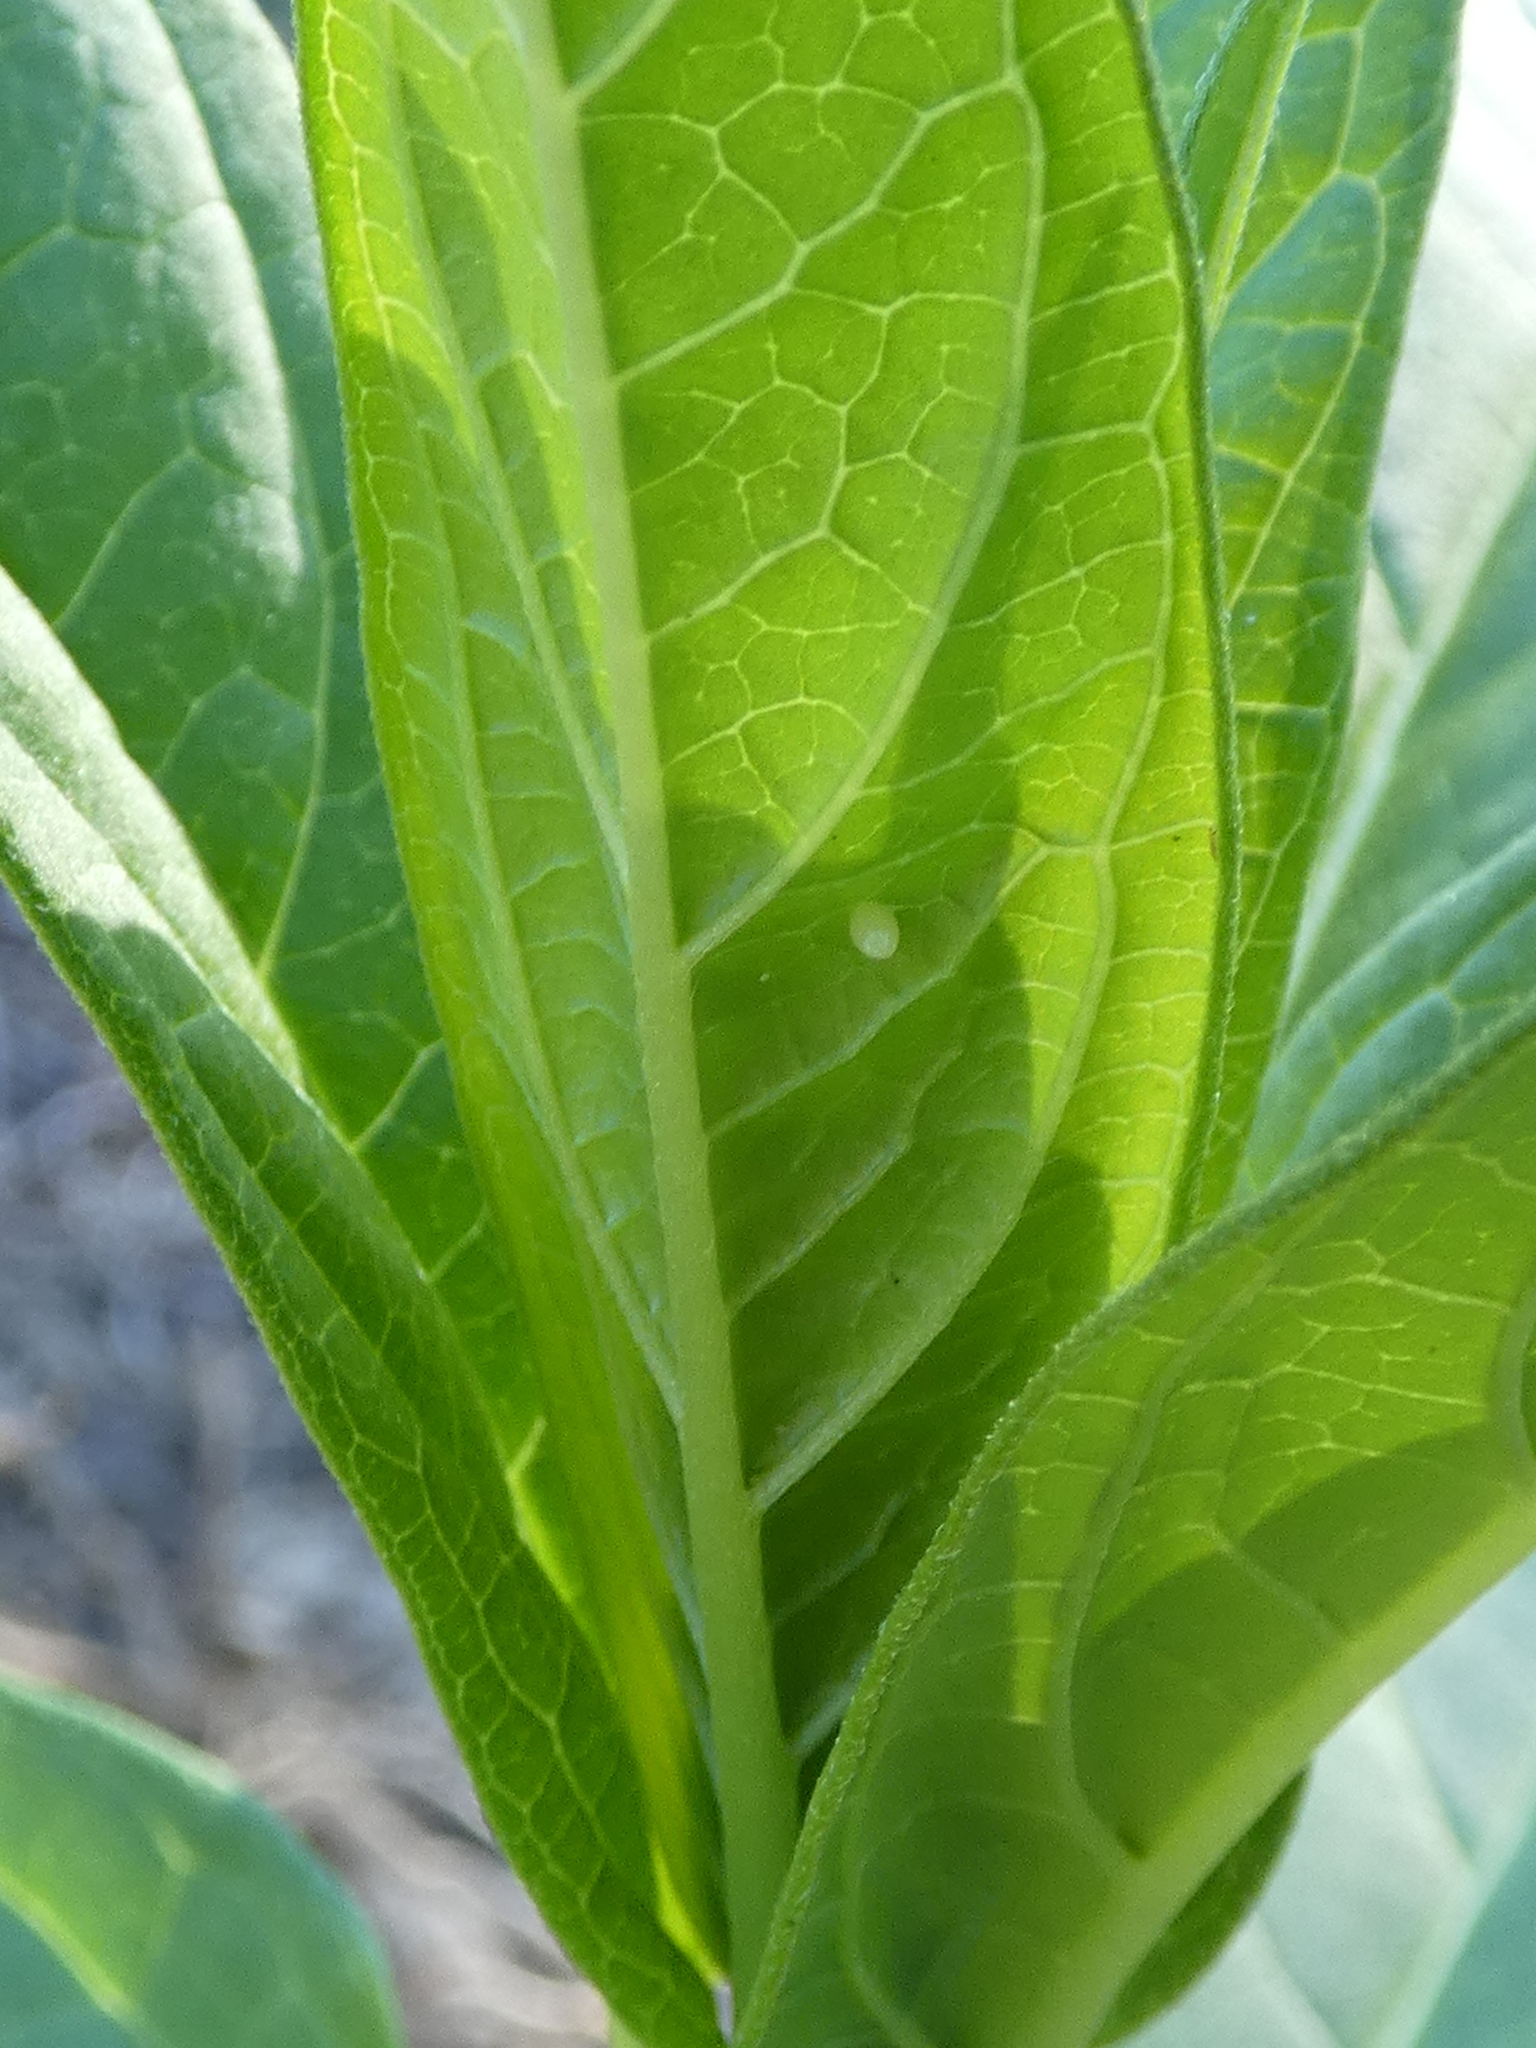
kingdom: Animalia
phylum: Arthropoda
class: Insecta
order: Lepidoptera
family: Nymphalidae
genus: Danaus
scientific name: Danaus plexippus
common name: Monarch
